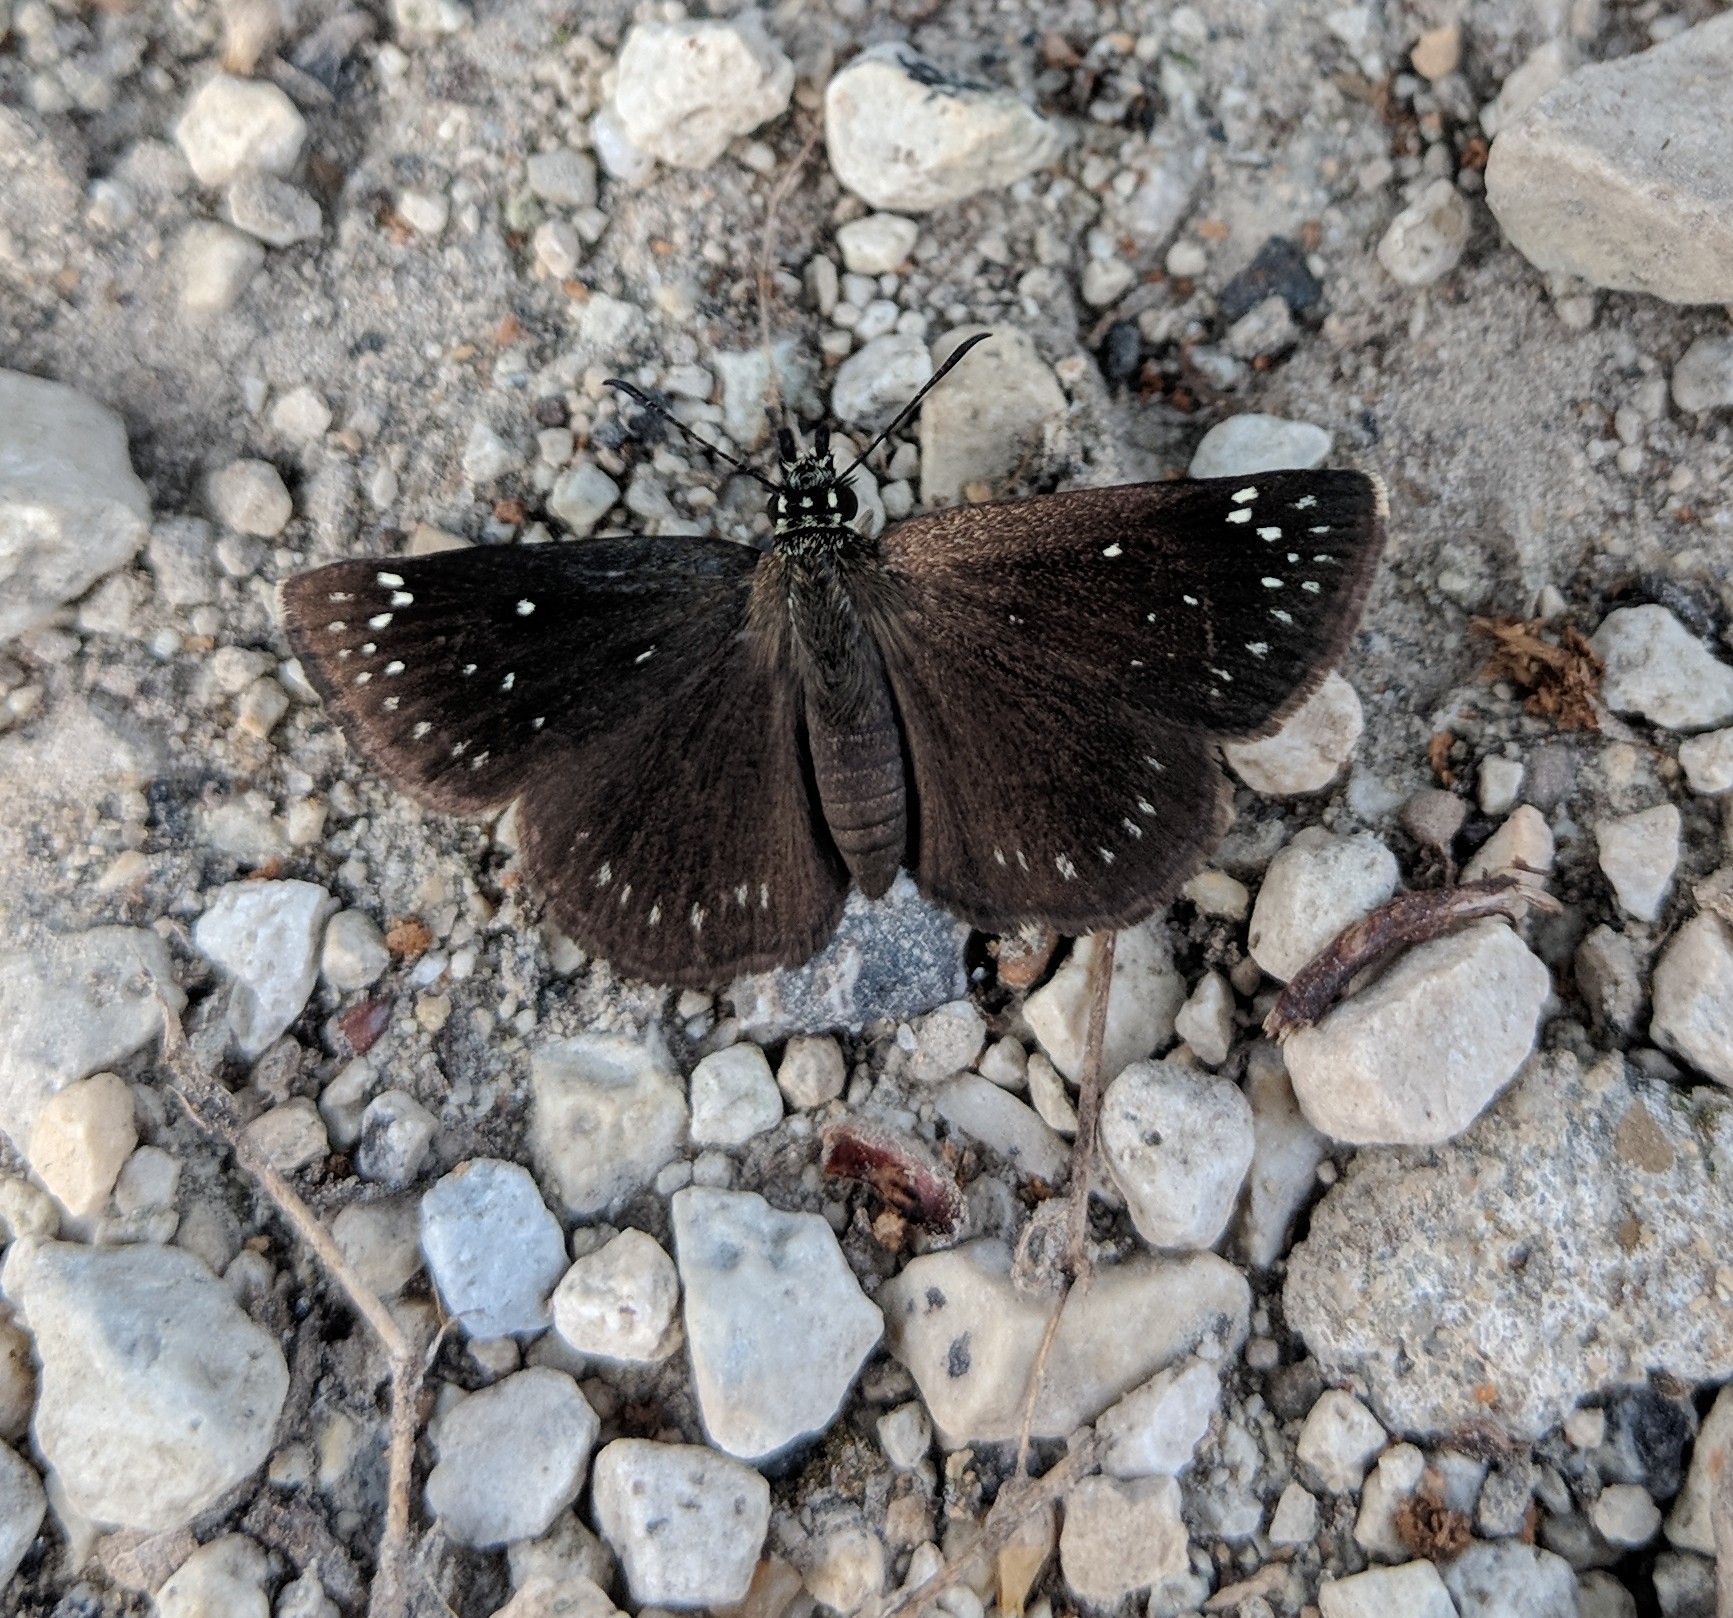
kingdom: Animalia
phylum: Arthropoda
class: Insecta
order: Lepidoptera
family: Hesperiidae
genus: Pholisora
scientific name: Pholisora catullus
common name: Common sootywing
